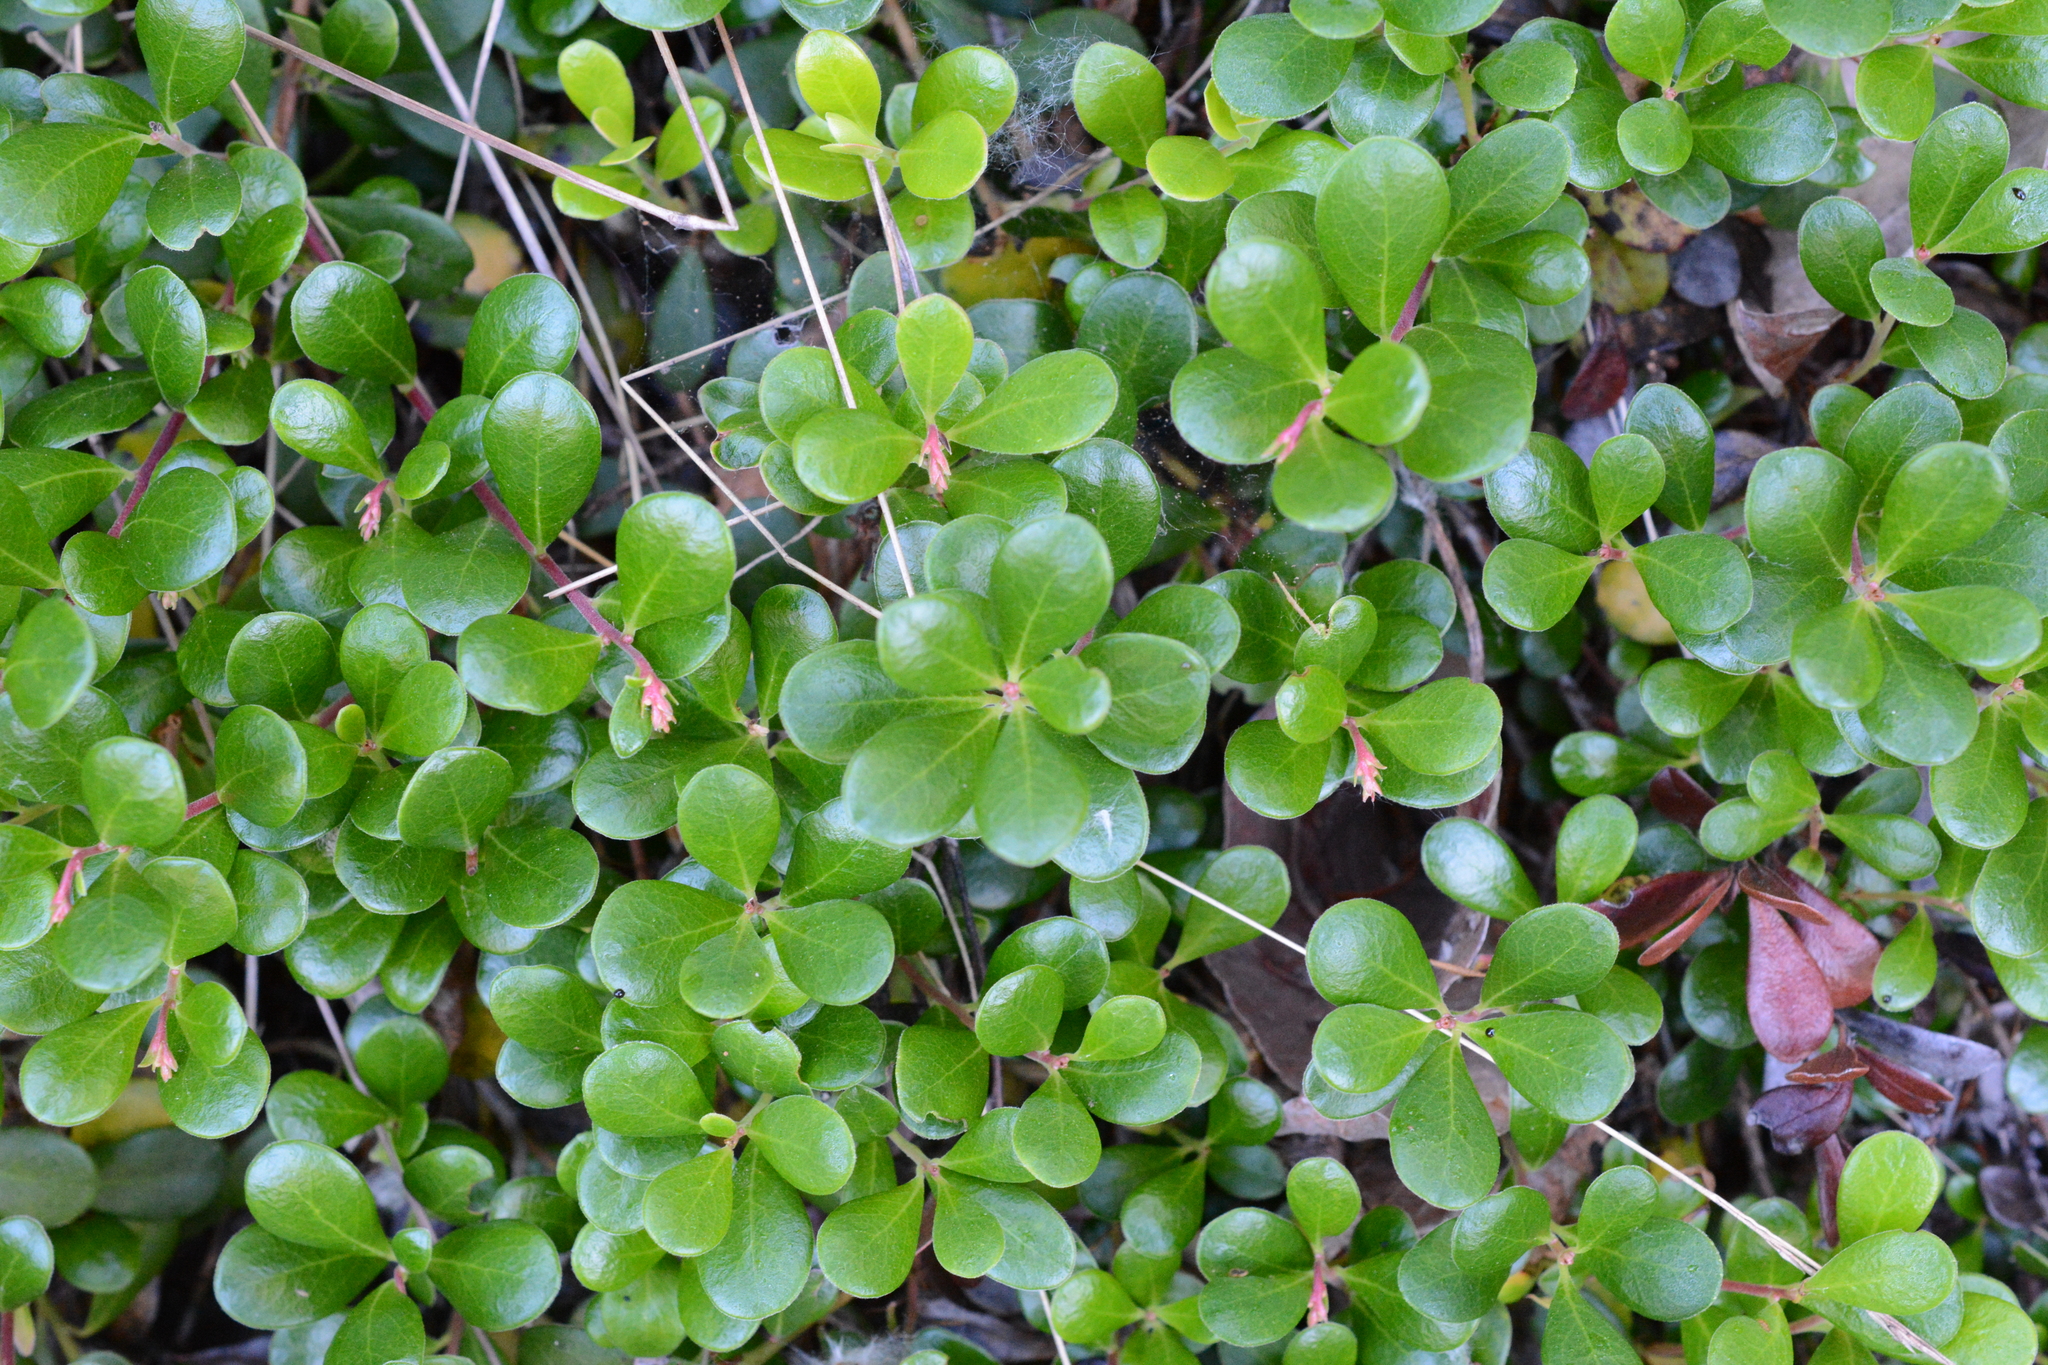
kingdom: Plantae
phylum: Tracheophyta
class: Magnoliopsida
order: Ericales
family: Ericaceae
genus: Arctostaphylos
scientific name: Arctostaphylos uva-ursi
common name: Bearberry
